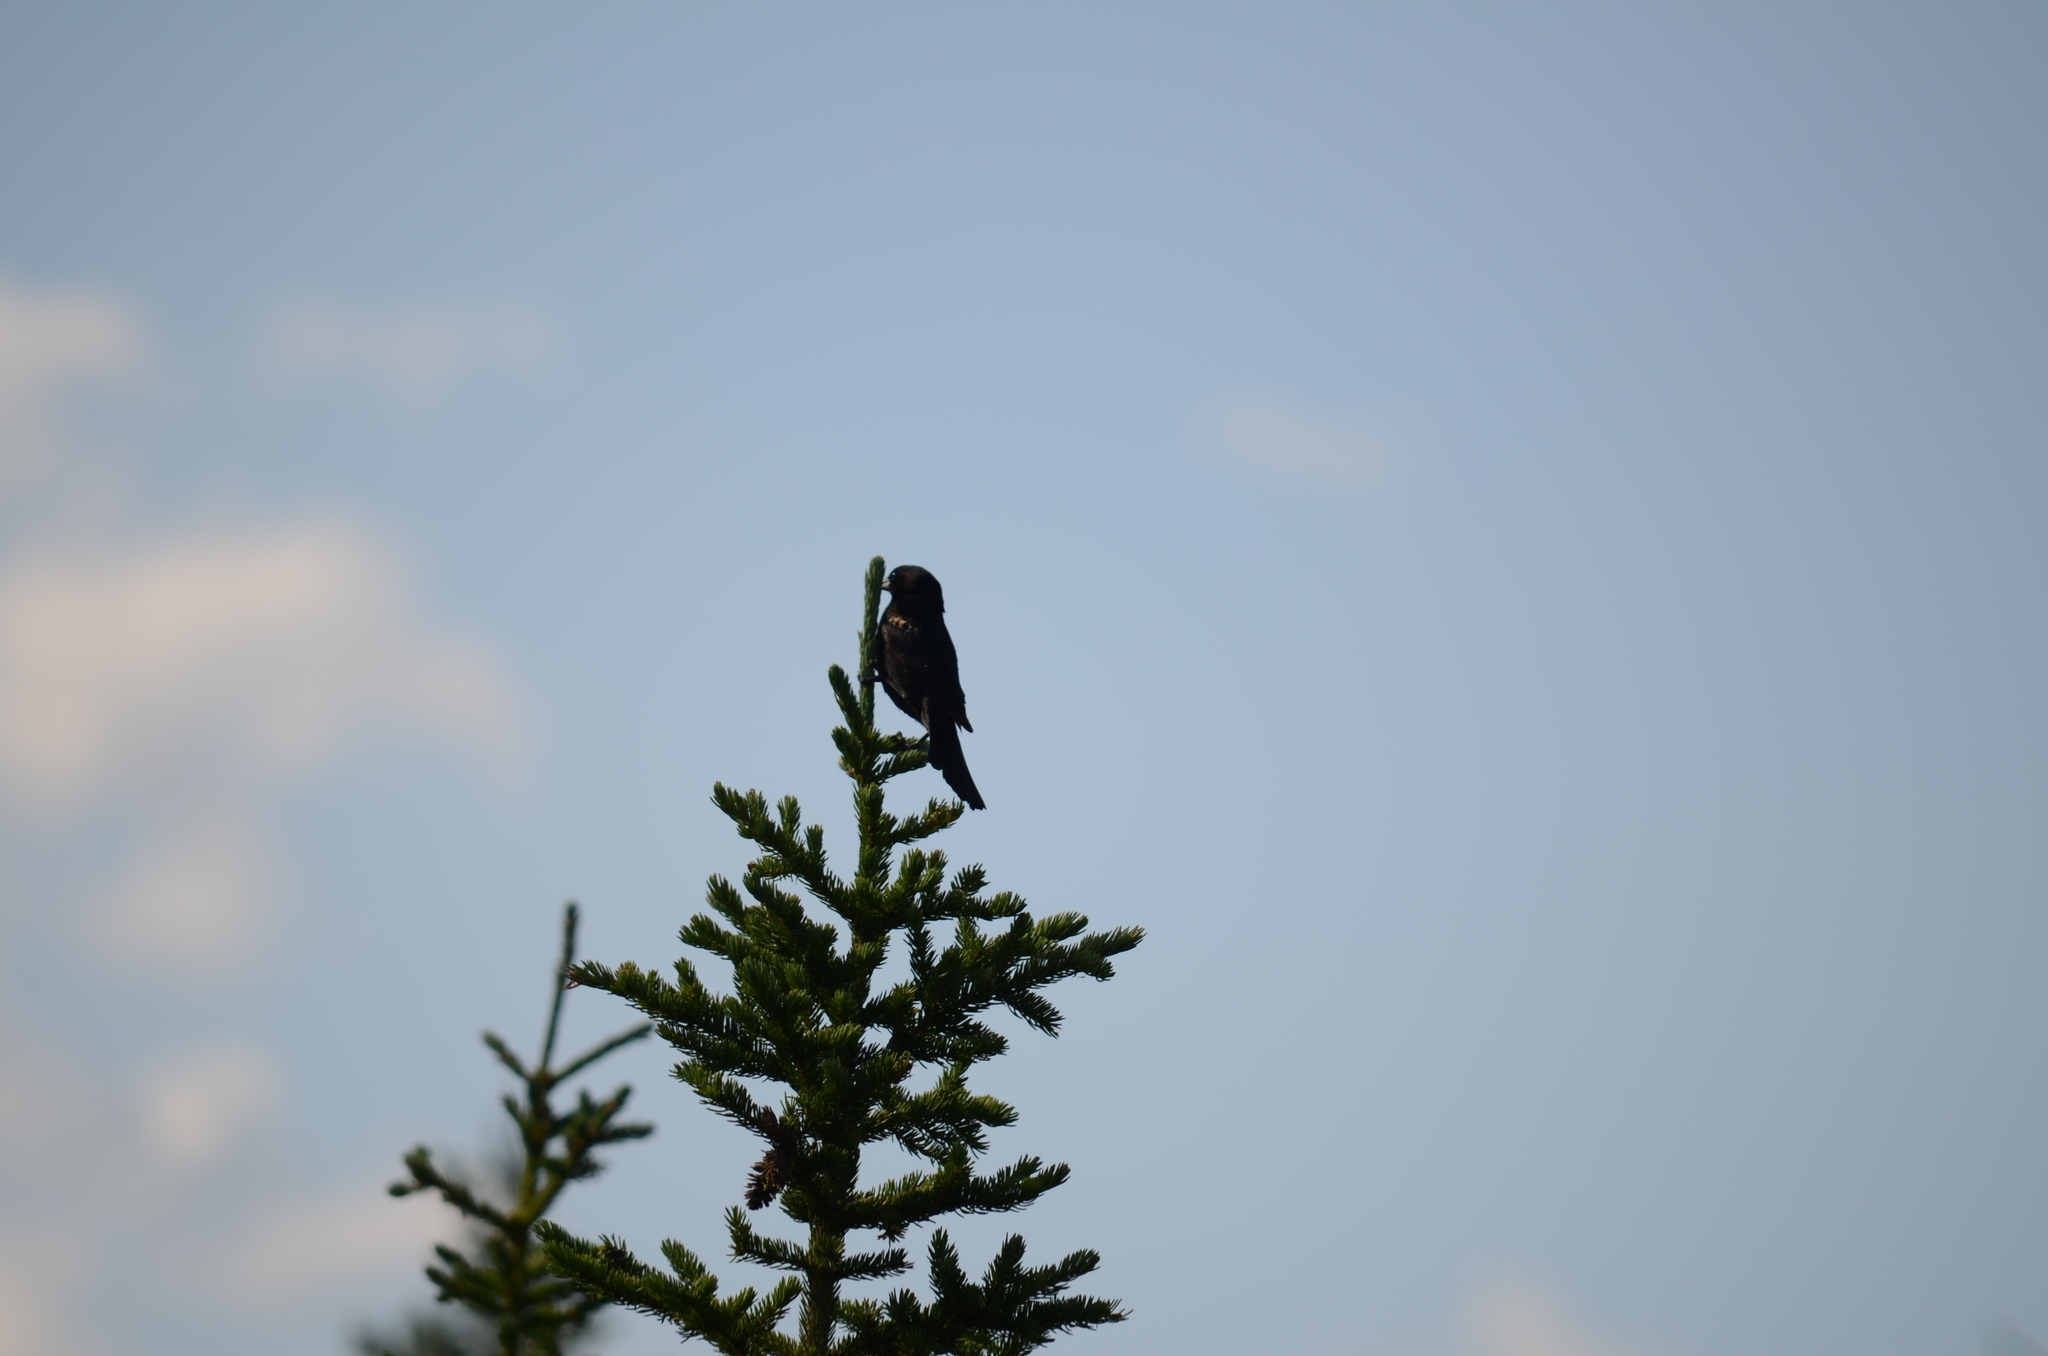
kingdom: Animalia
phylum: Chordata
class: Aves
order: Passeriformes
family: Icteridae
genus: Agelaius
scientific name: Agelaius phoeniceus
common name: Red-winged blackbird
